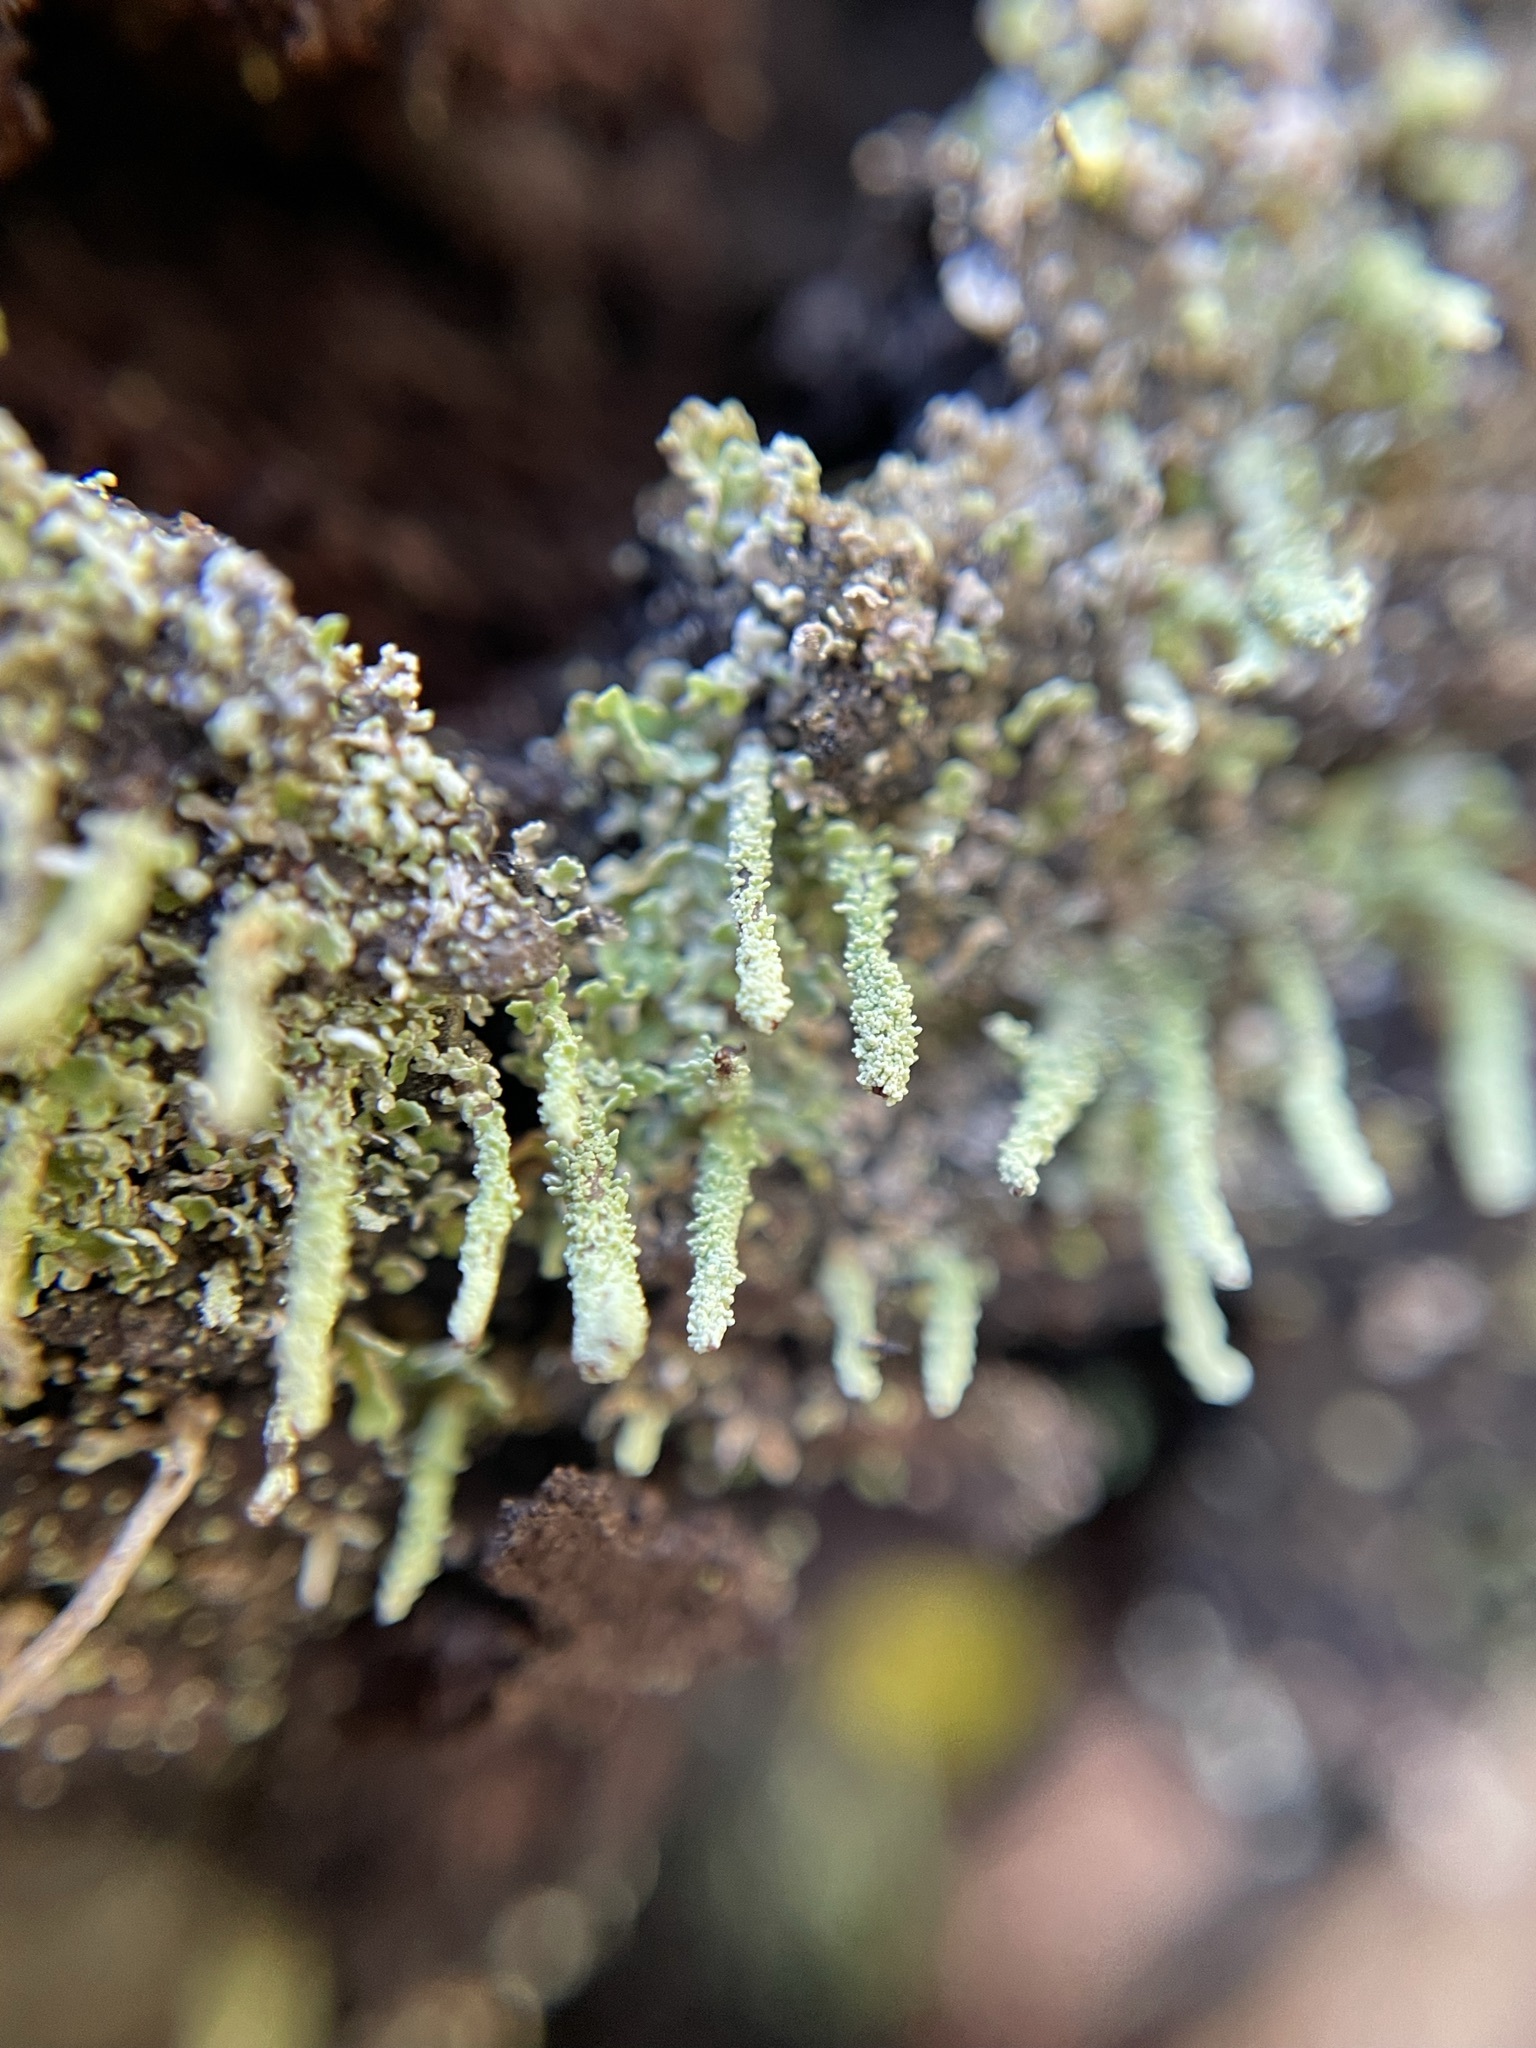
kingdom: Fungi
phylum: Ascomycota
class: Lecanoromycetes
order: Lecanorales
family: Cladoniaceae
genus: Cladonia
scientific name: Cladonia didyma
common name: Southern soldiers
